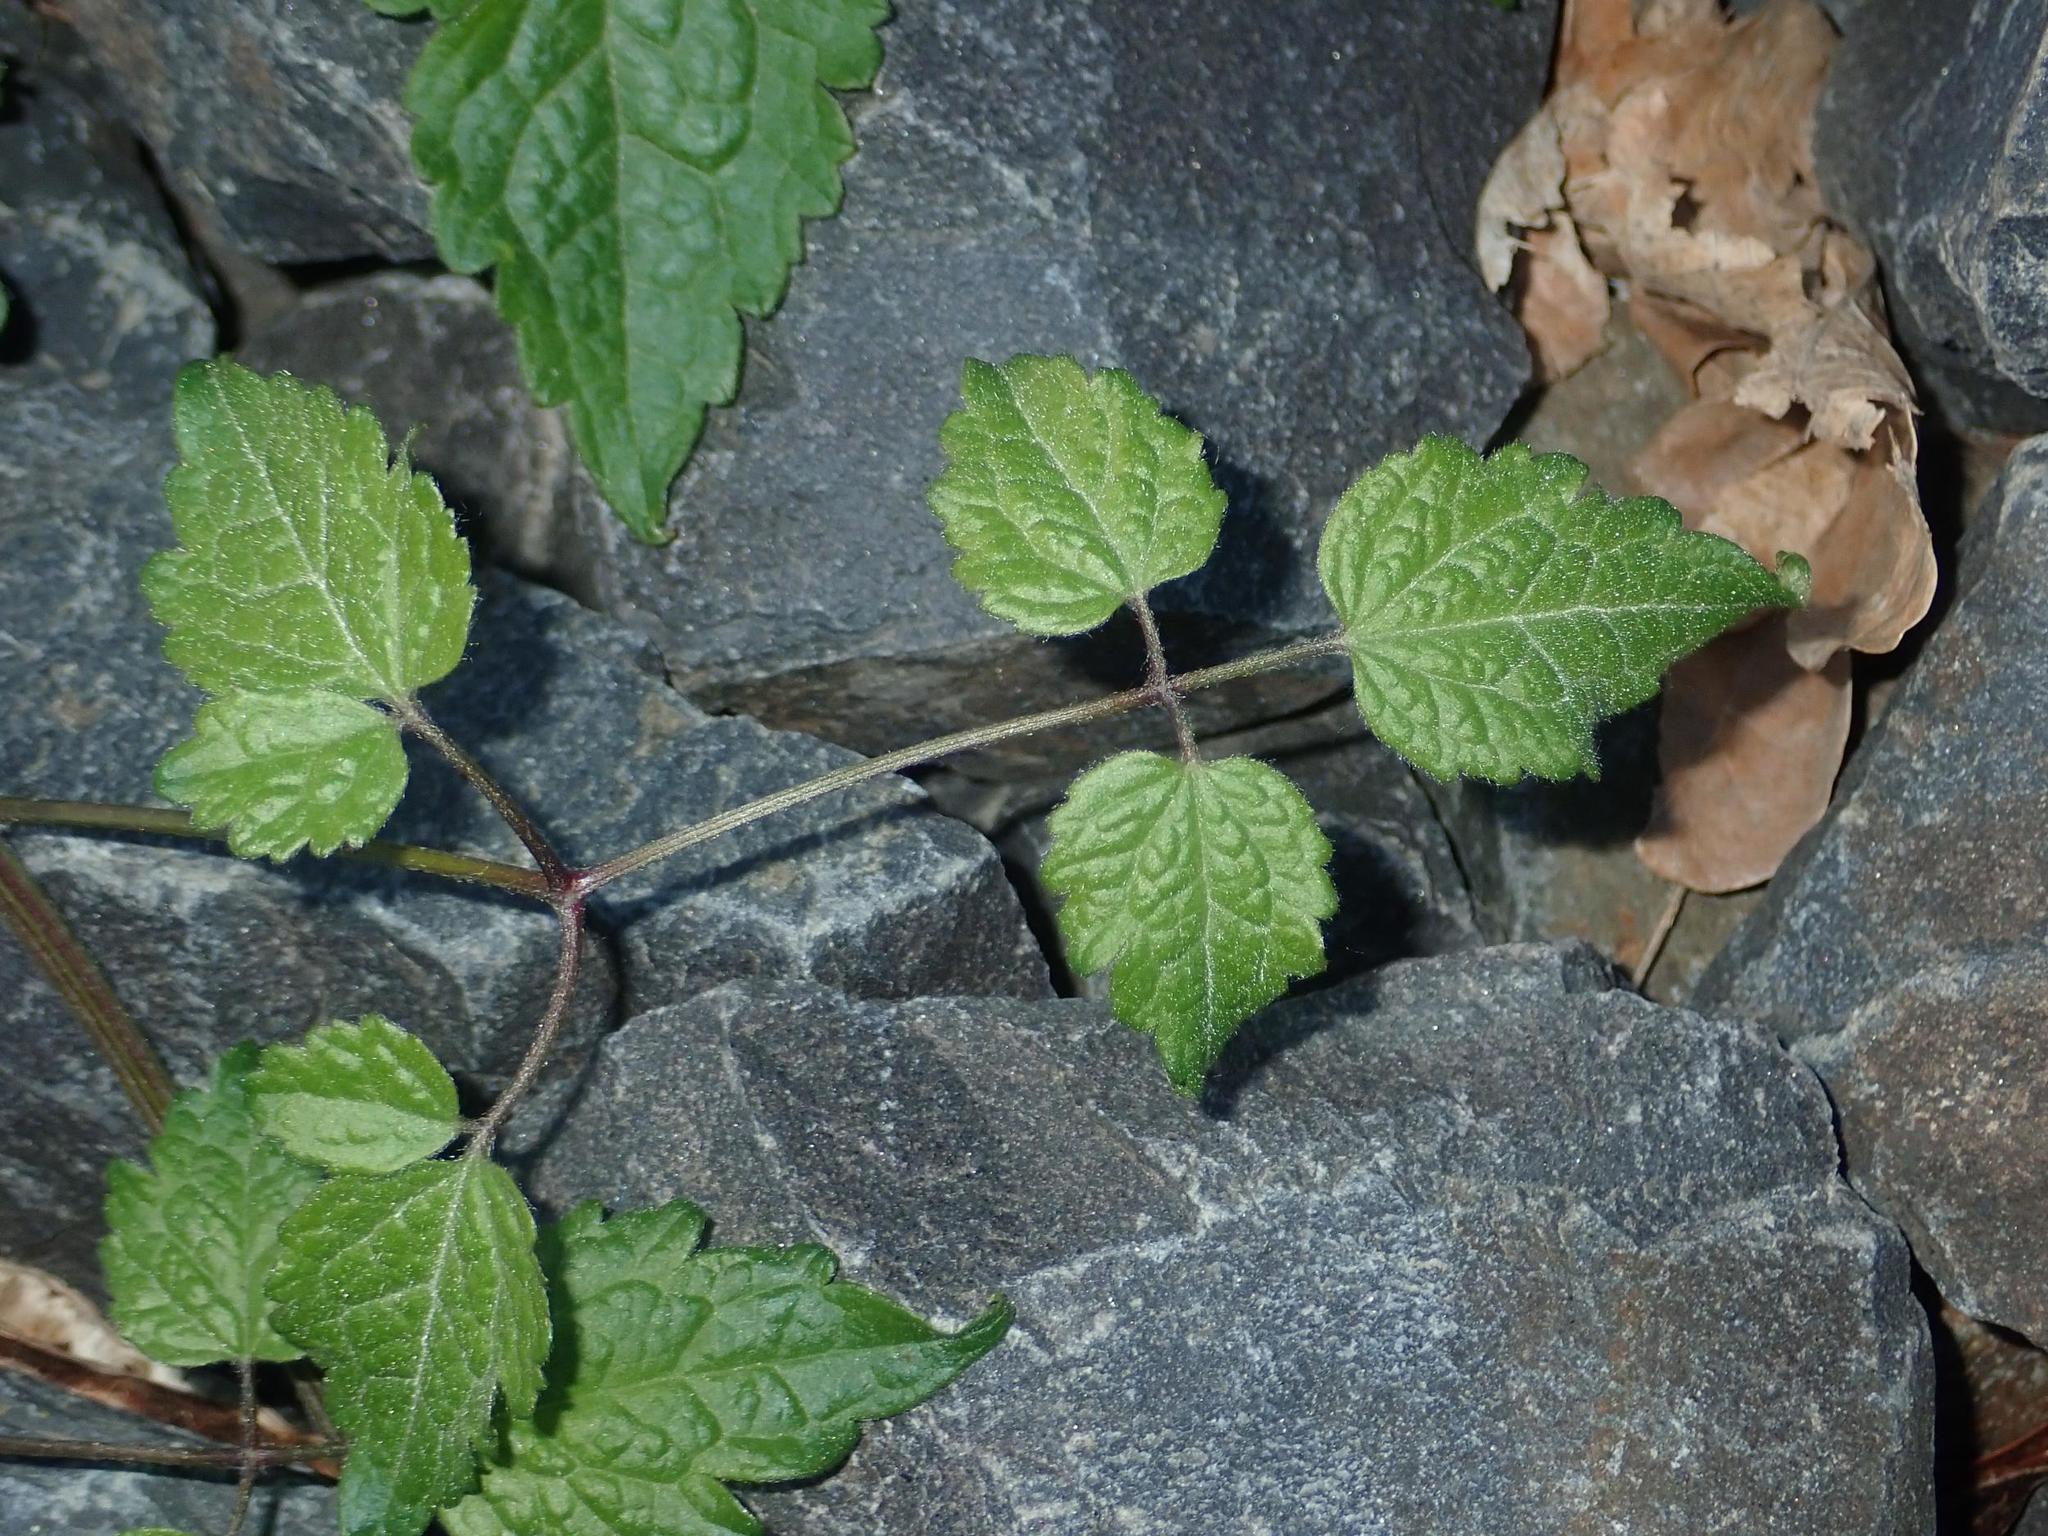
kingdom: Plantae
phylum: Tracheophyta
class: Magnoliopsida
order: Ranunculales
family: Ranunculaceae
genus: Clematis
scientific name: Clematis vitalba
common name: Evergreen clematis
